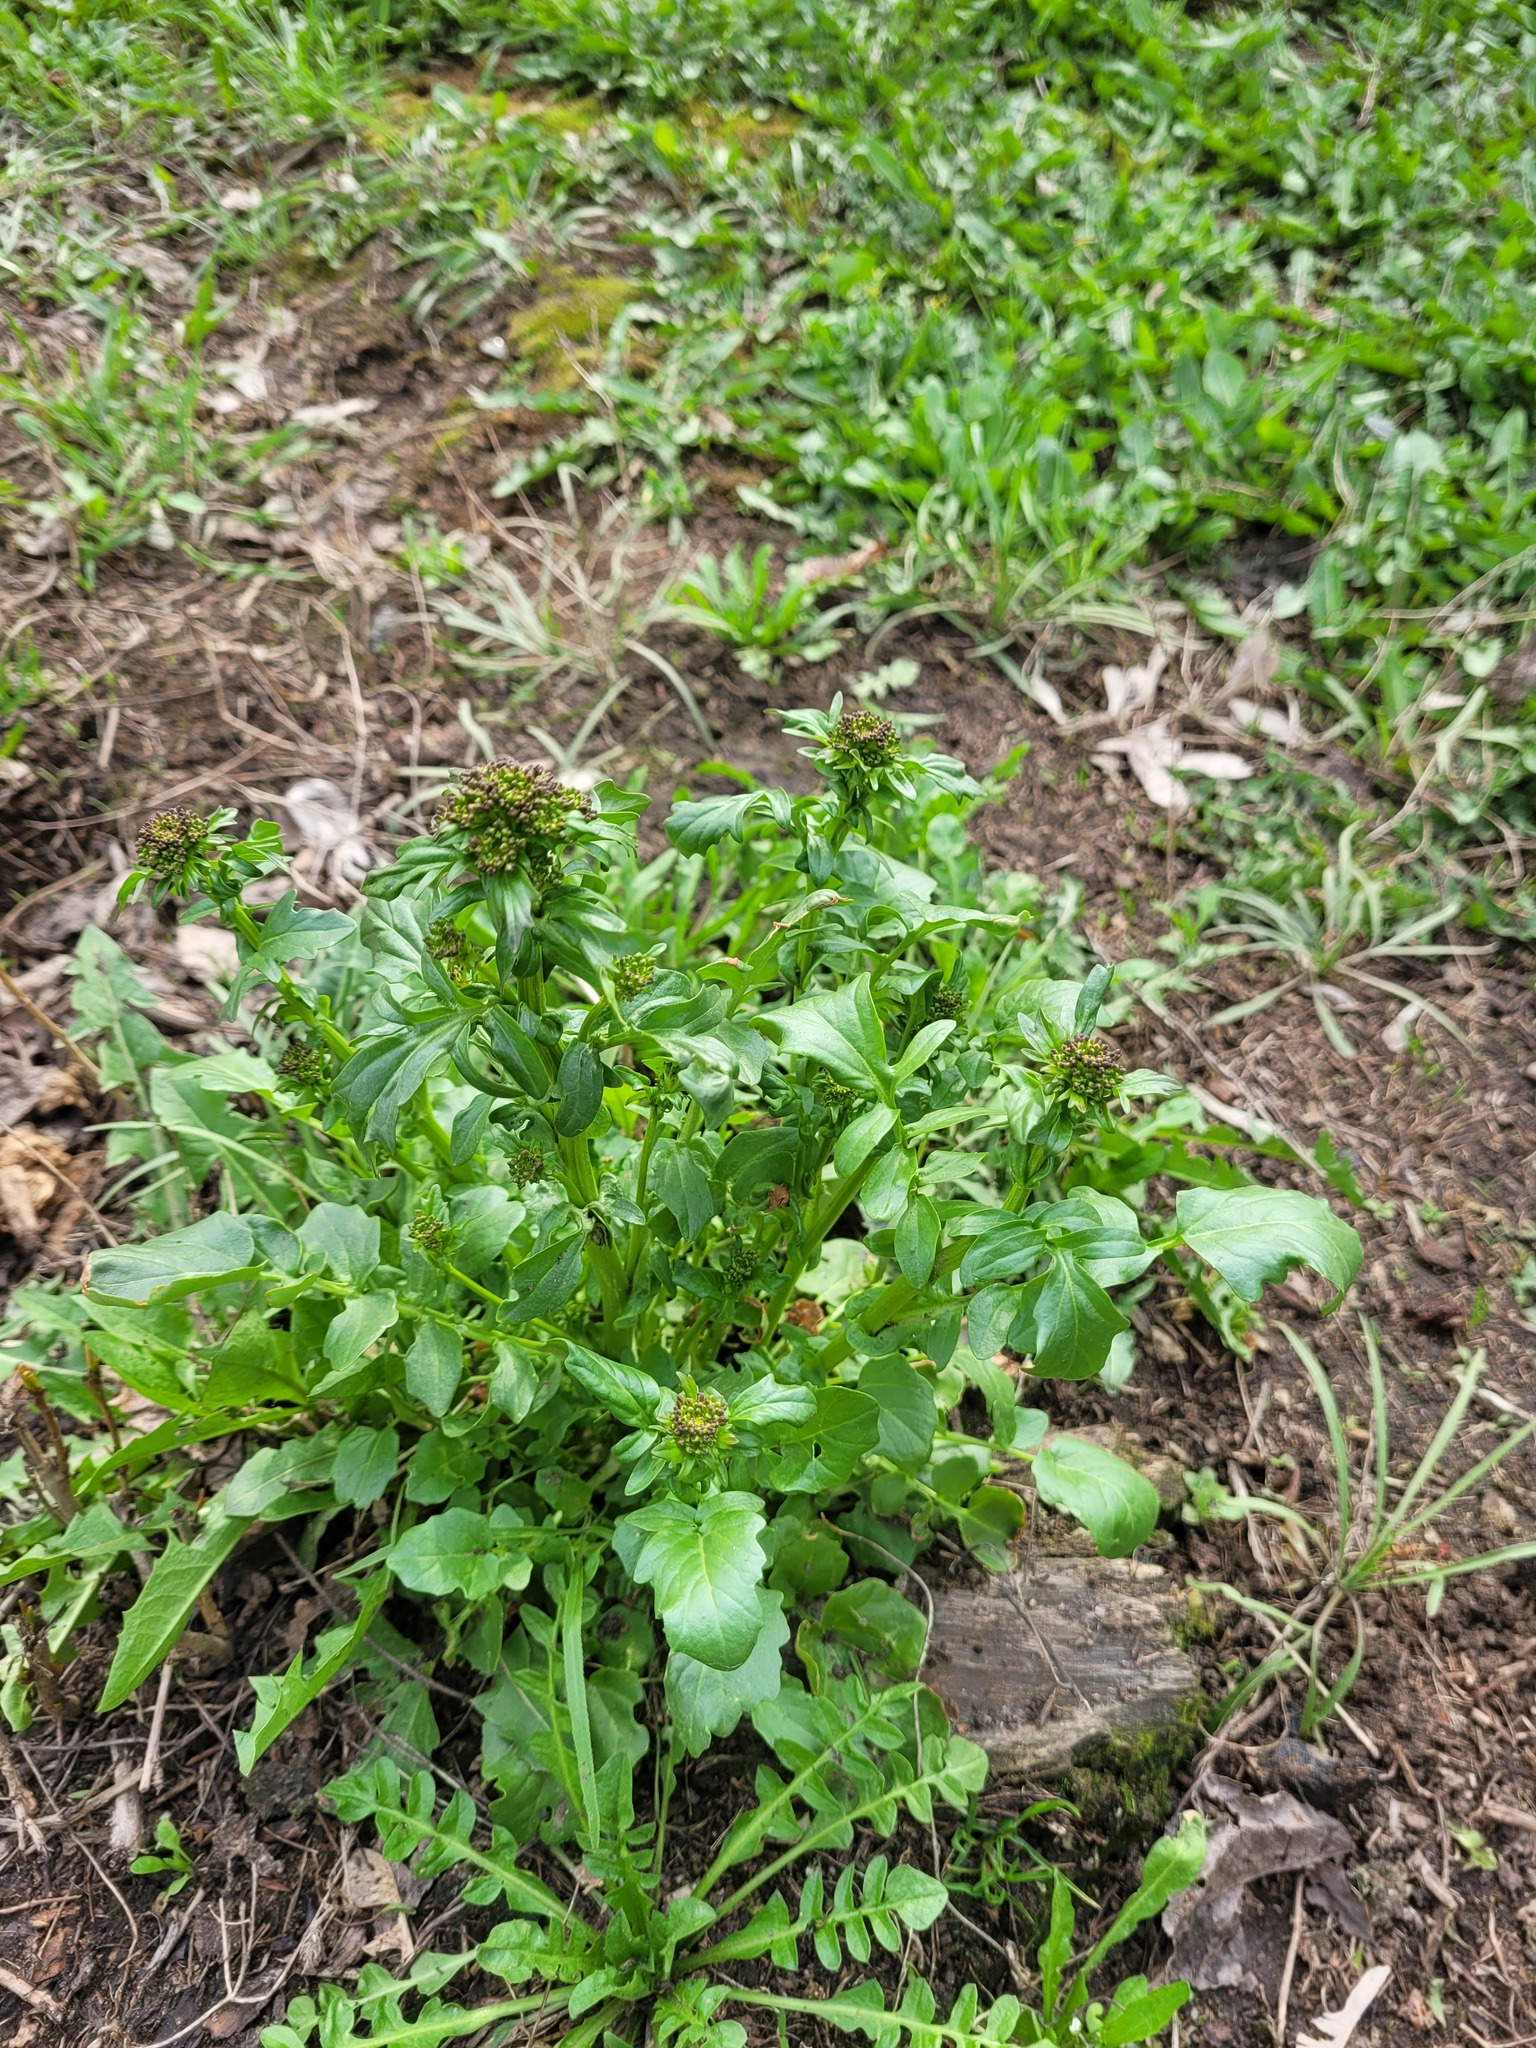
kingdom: Plantae
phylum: Tracheophyta
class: Magnoliopsida
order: Brassicales
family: Brassicaceae
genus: Barbarea
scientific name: Barbarea vulgaris
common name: Cressy-greens
